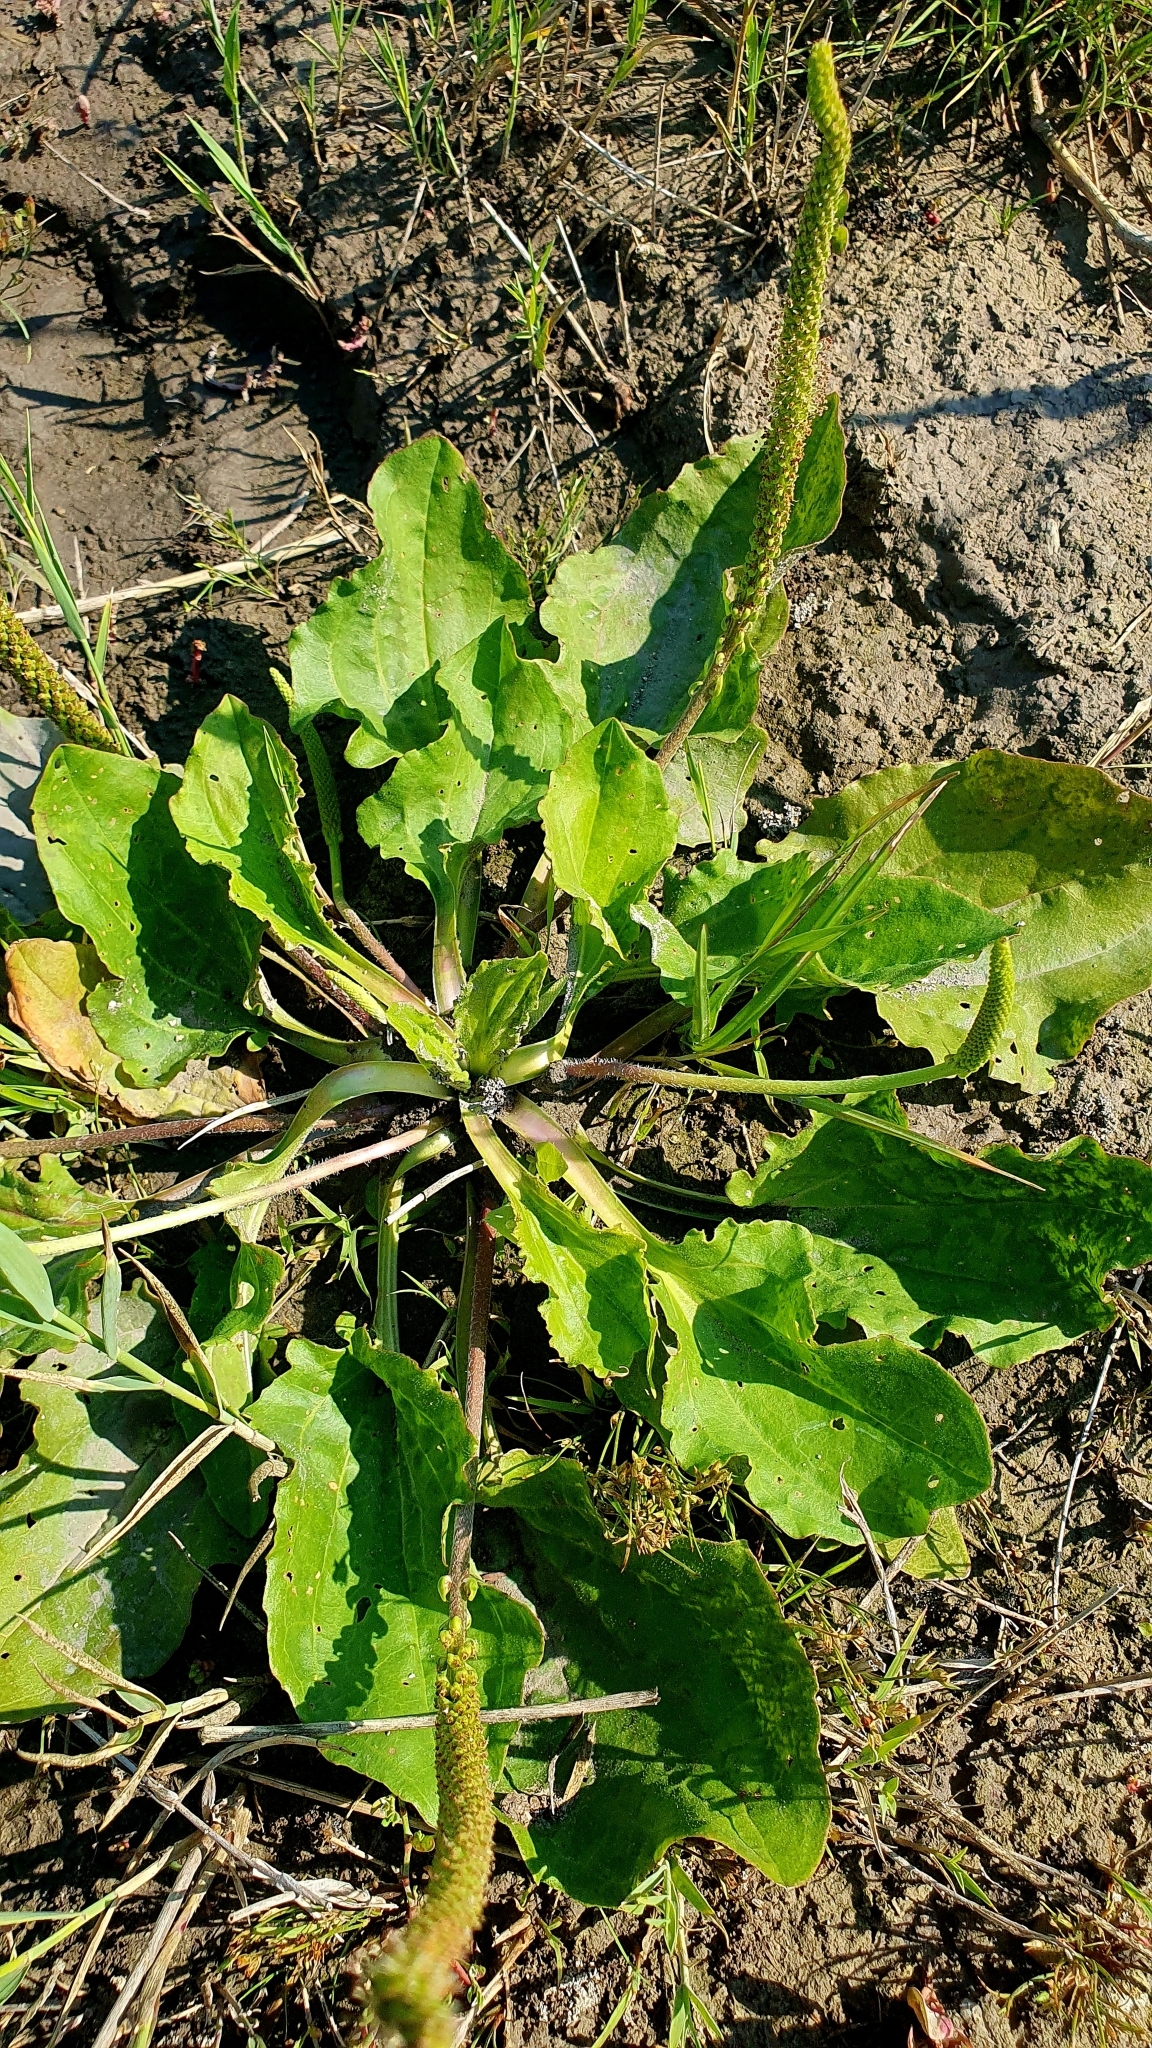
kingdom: Plantae
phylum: Tracheophyta
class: Magnoliopsida
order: Lamiales
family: Plantaginaceae
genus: Plantago
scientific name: Plantago major
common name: Common plantain
